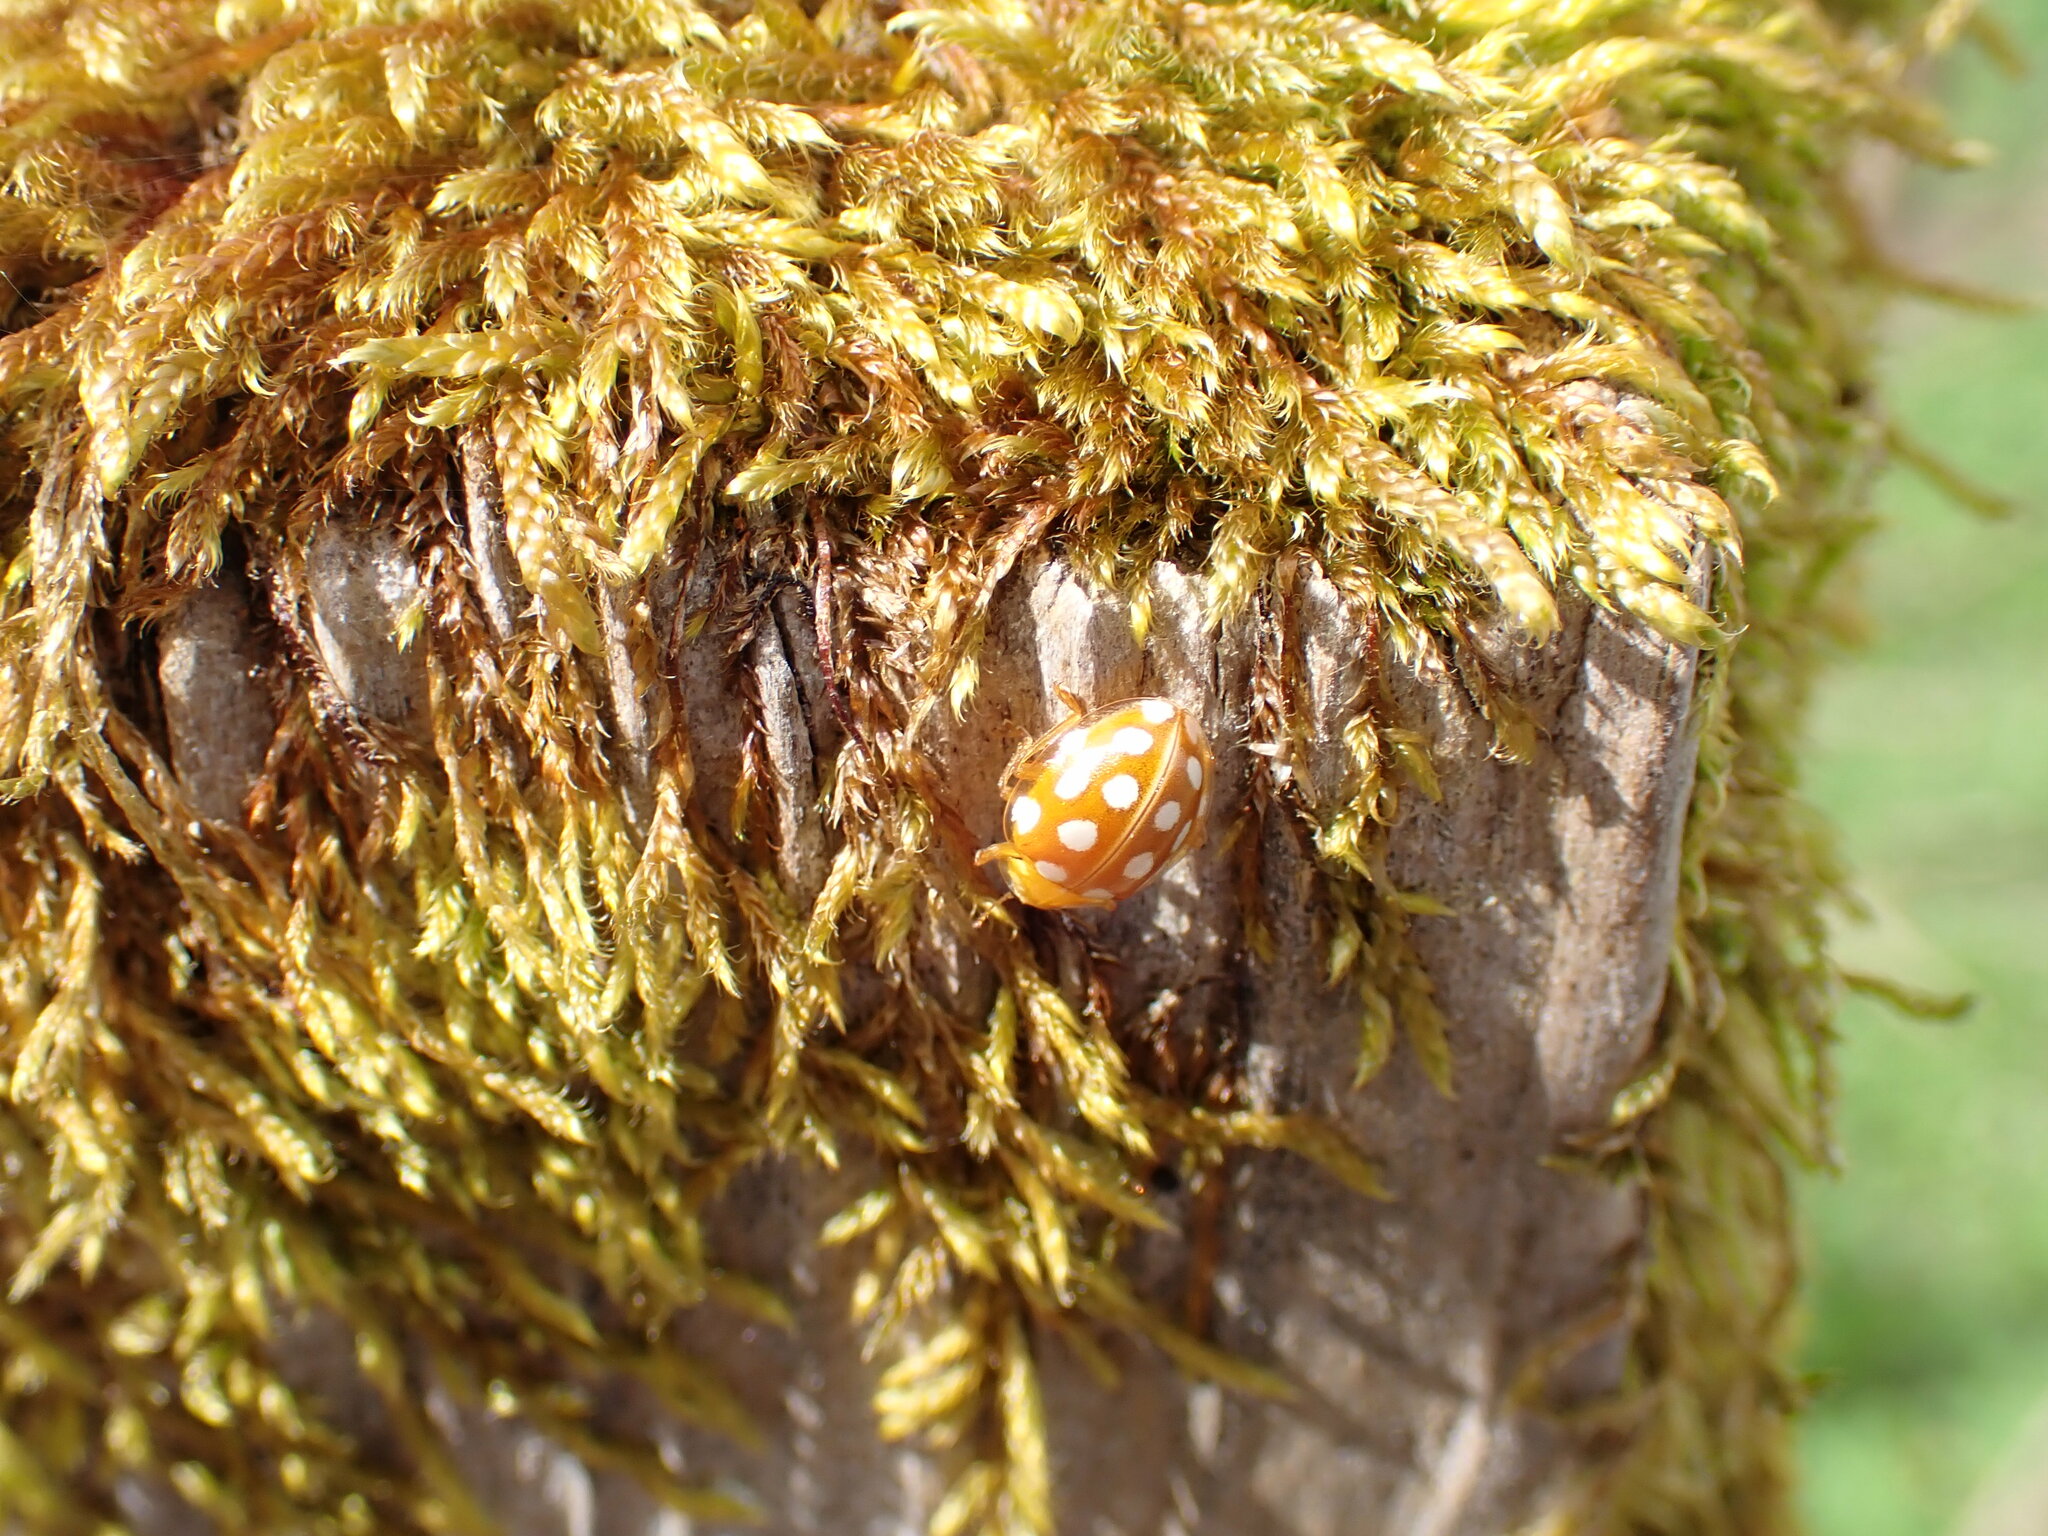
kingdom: Animalia
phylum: Arthropoda
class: Insecta
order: Coleoptera
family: Coccinellidae
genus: Halyzia
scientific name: Halyzia sedecimguttata
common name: Orange ladybird
